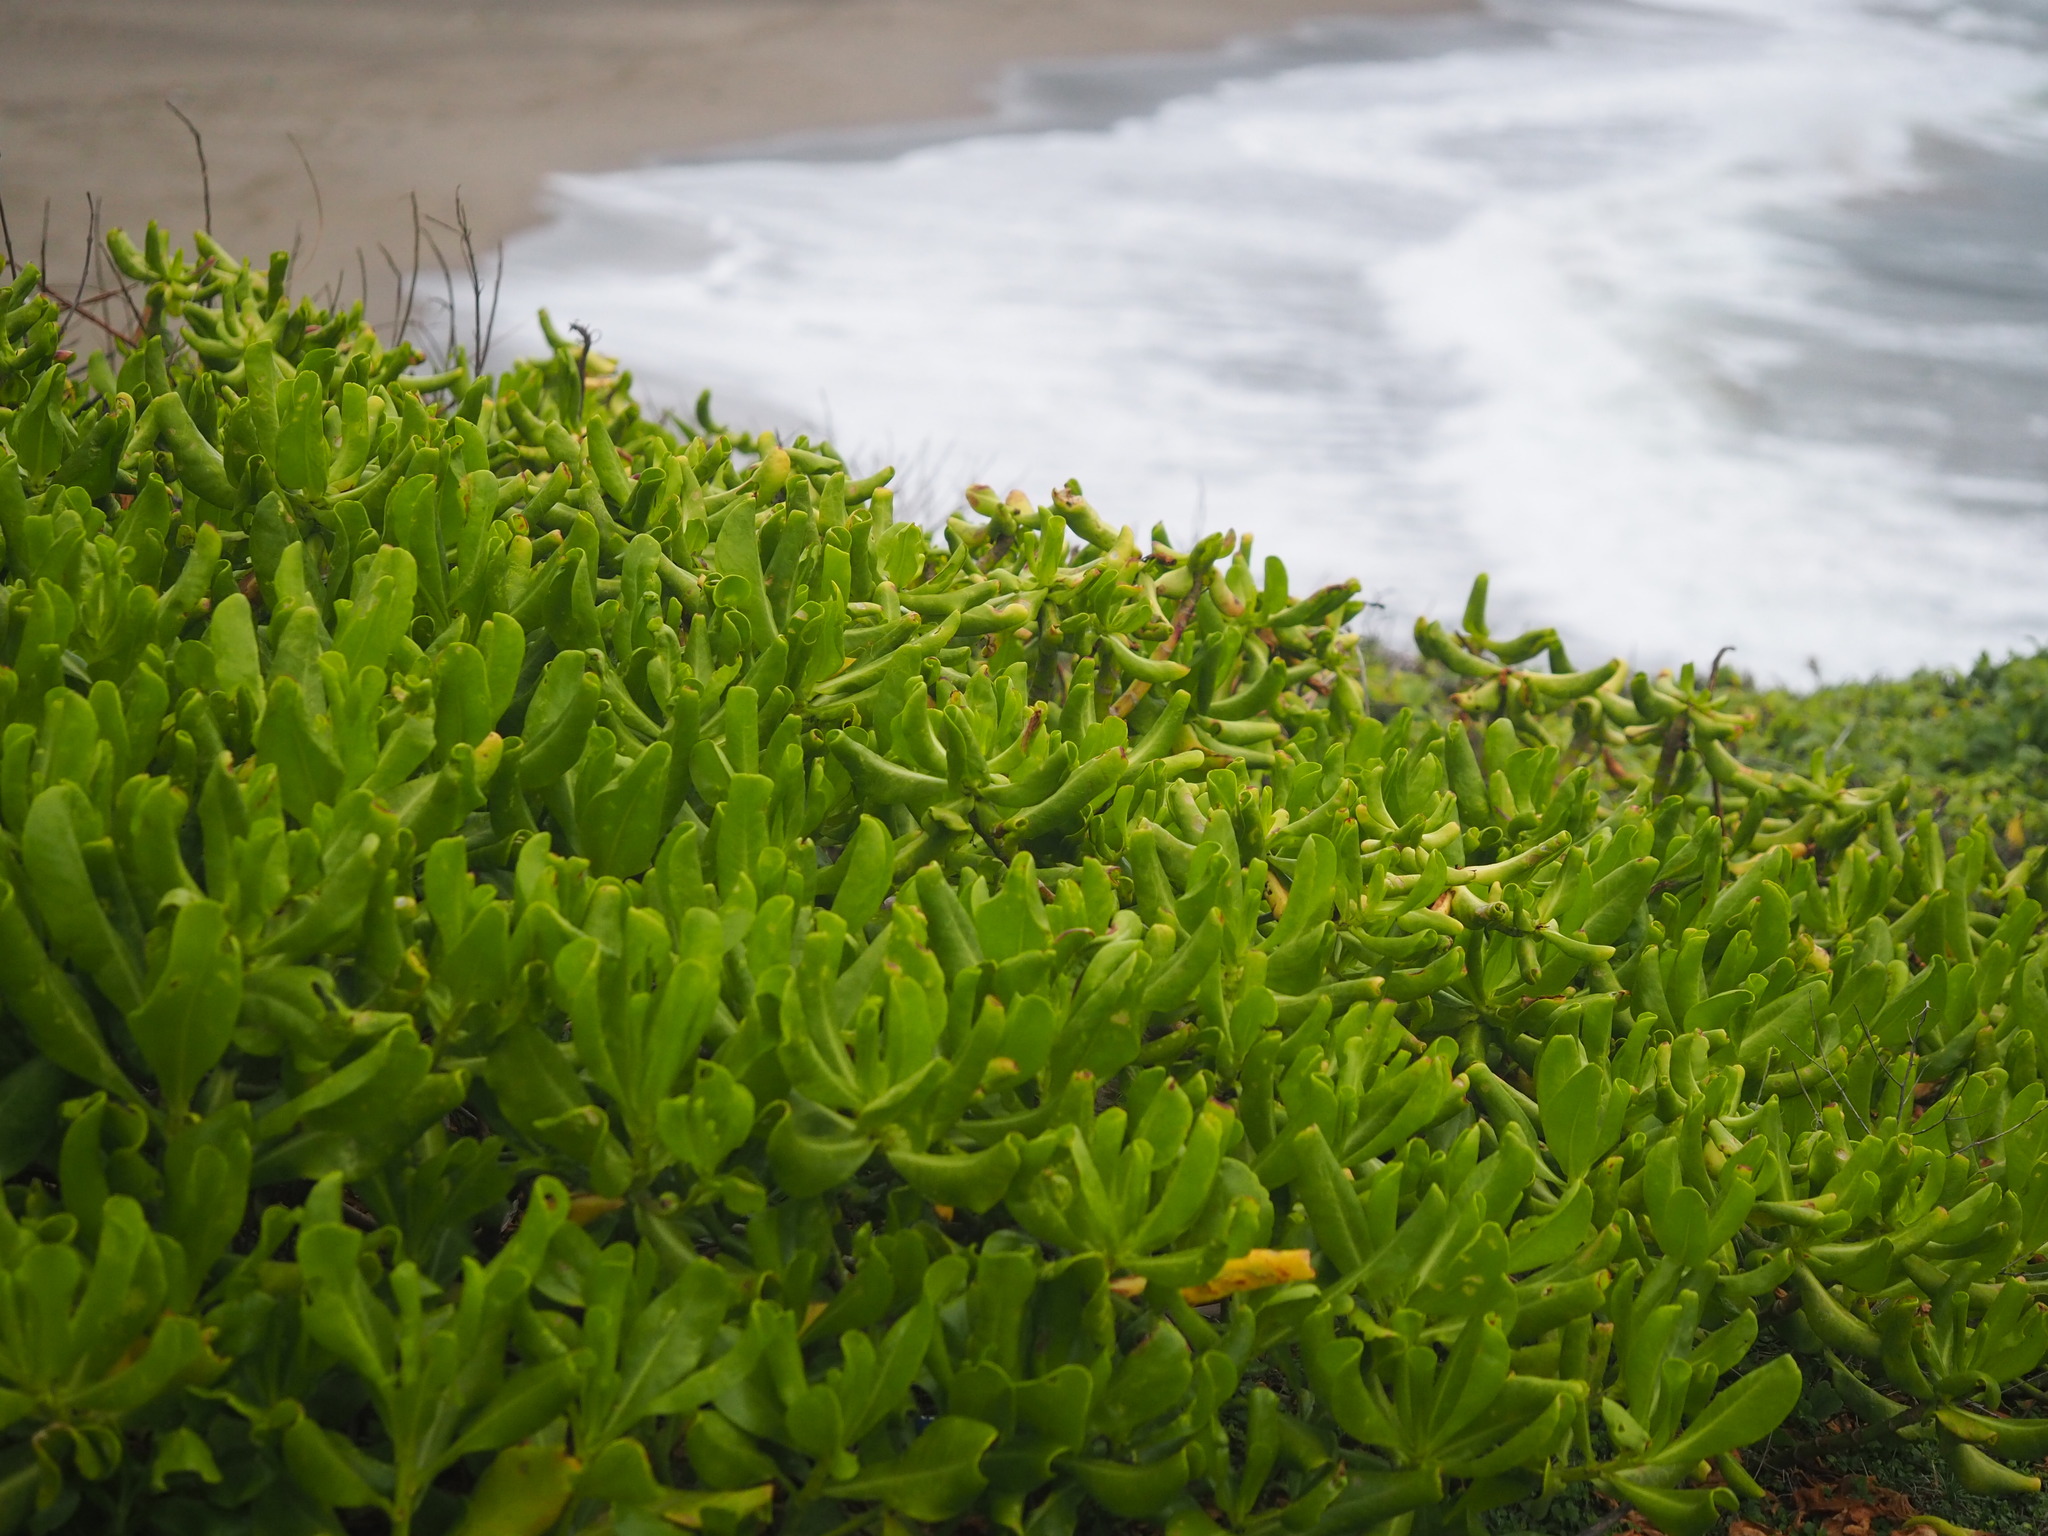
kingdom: Plantae
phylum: Tracheophyta
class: Magnoliopsida
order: Asterales
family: Goodeniaceae
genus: Scaevola
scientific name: Scaevola taccada
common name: Sea lettucetree
